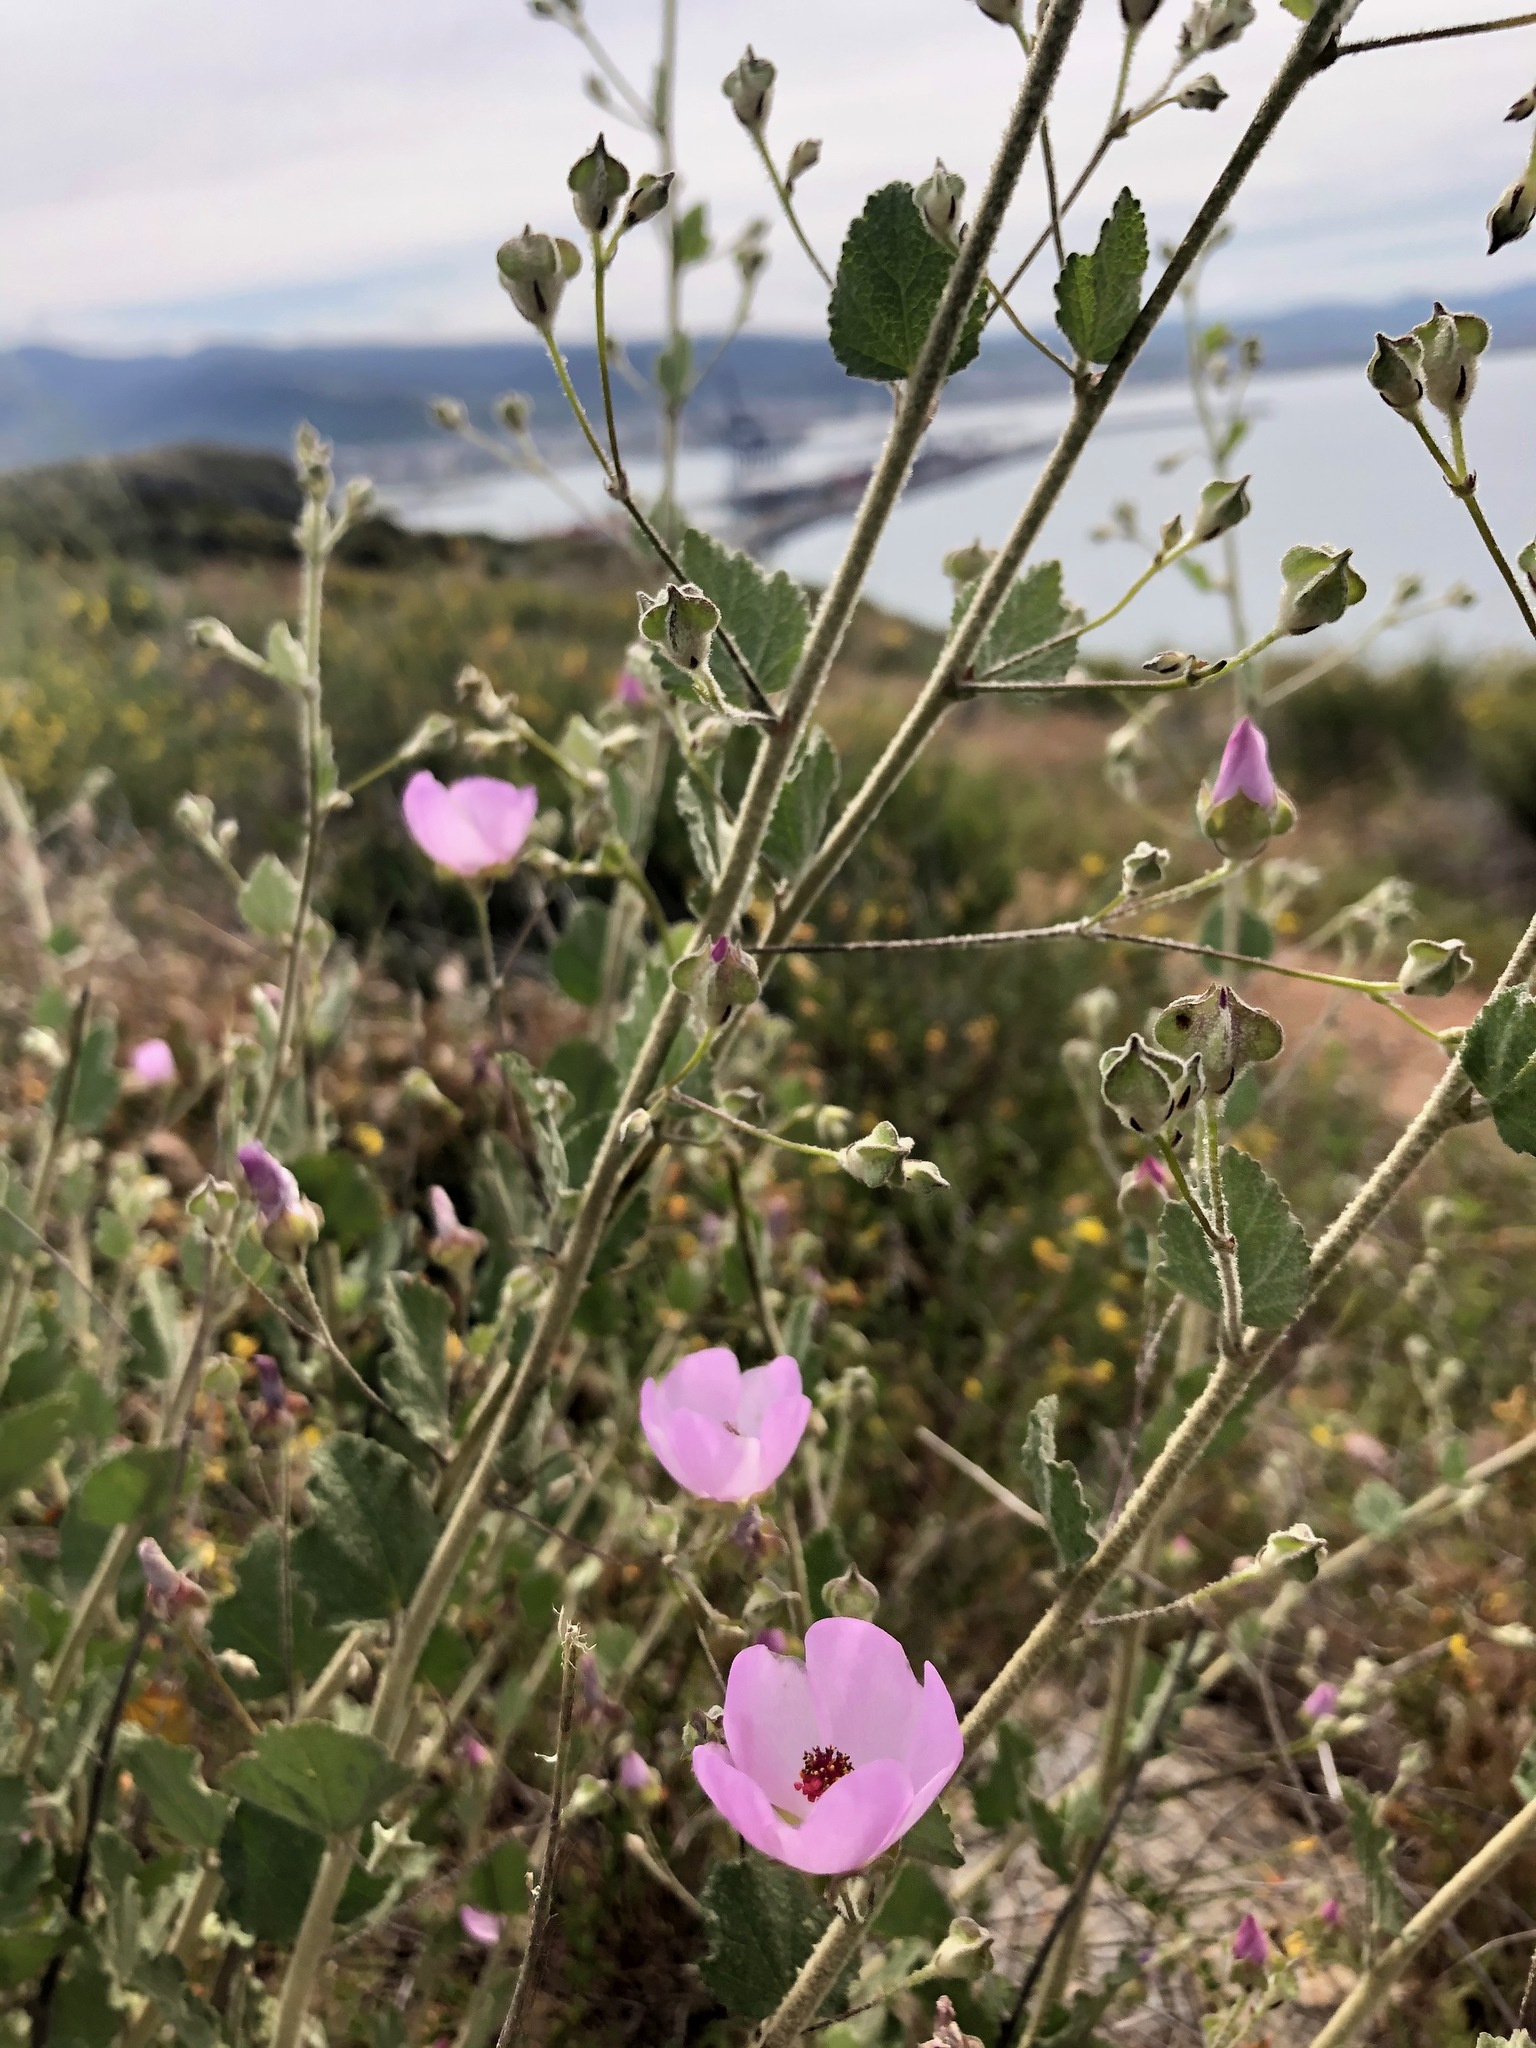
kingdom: Plantae
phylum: Tracheophyta
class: Magnoliopsida
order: Malvales
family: Malvaceae
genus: Malacothamnus
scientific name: Malacothamnus foliosus
